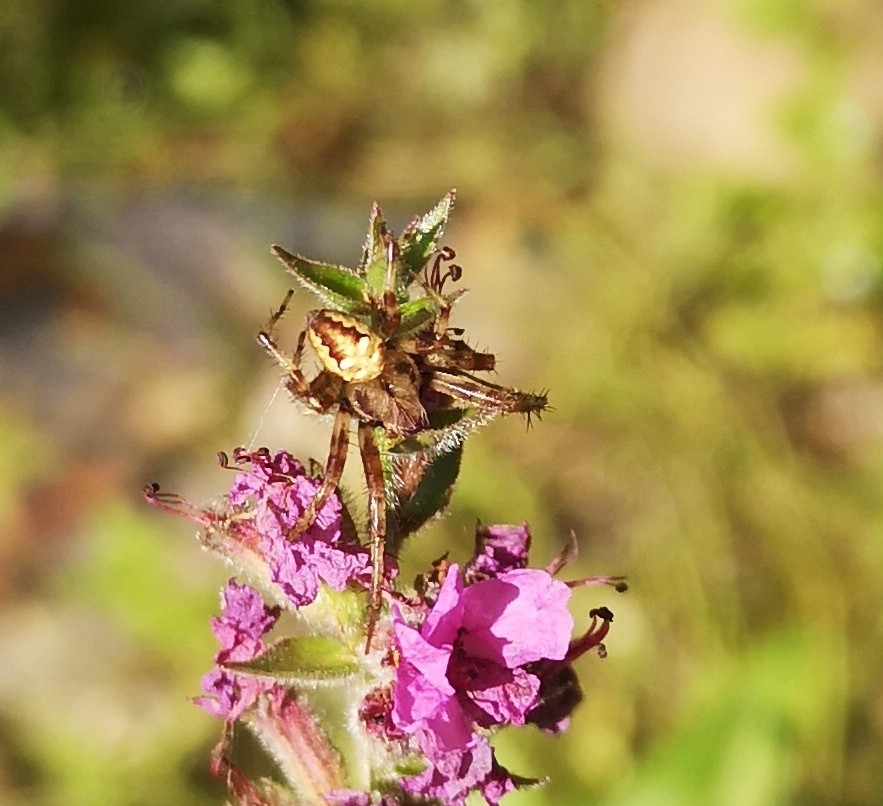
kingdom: Animalia
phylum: Arthropoda
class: Arachnida
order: Araneae
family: Araneidae
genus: Araneus
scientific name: Araneus quadratus
